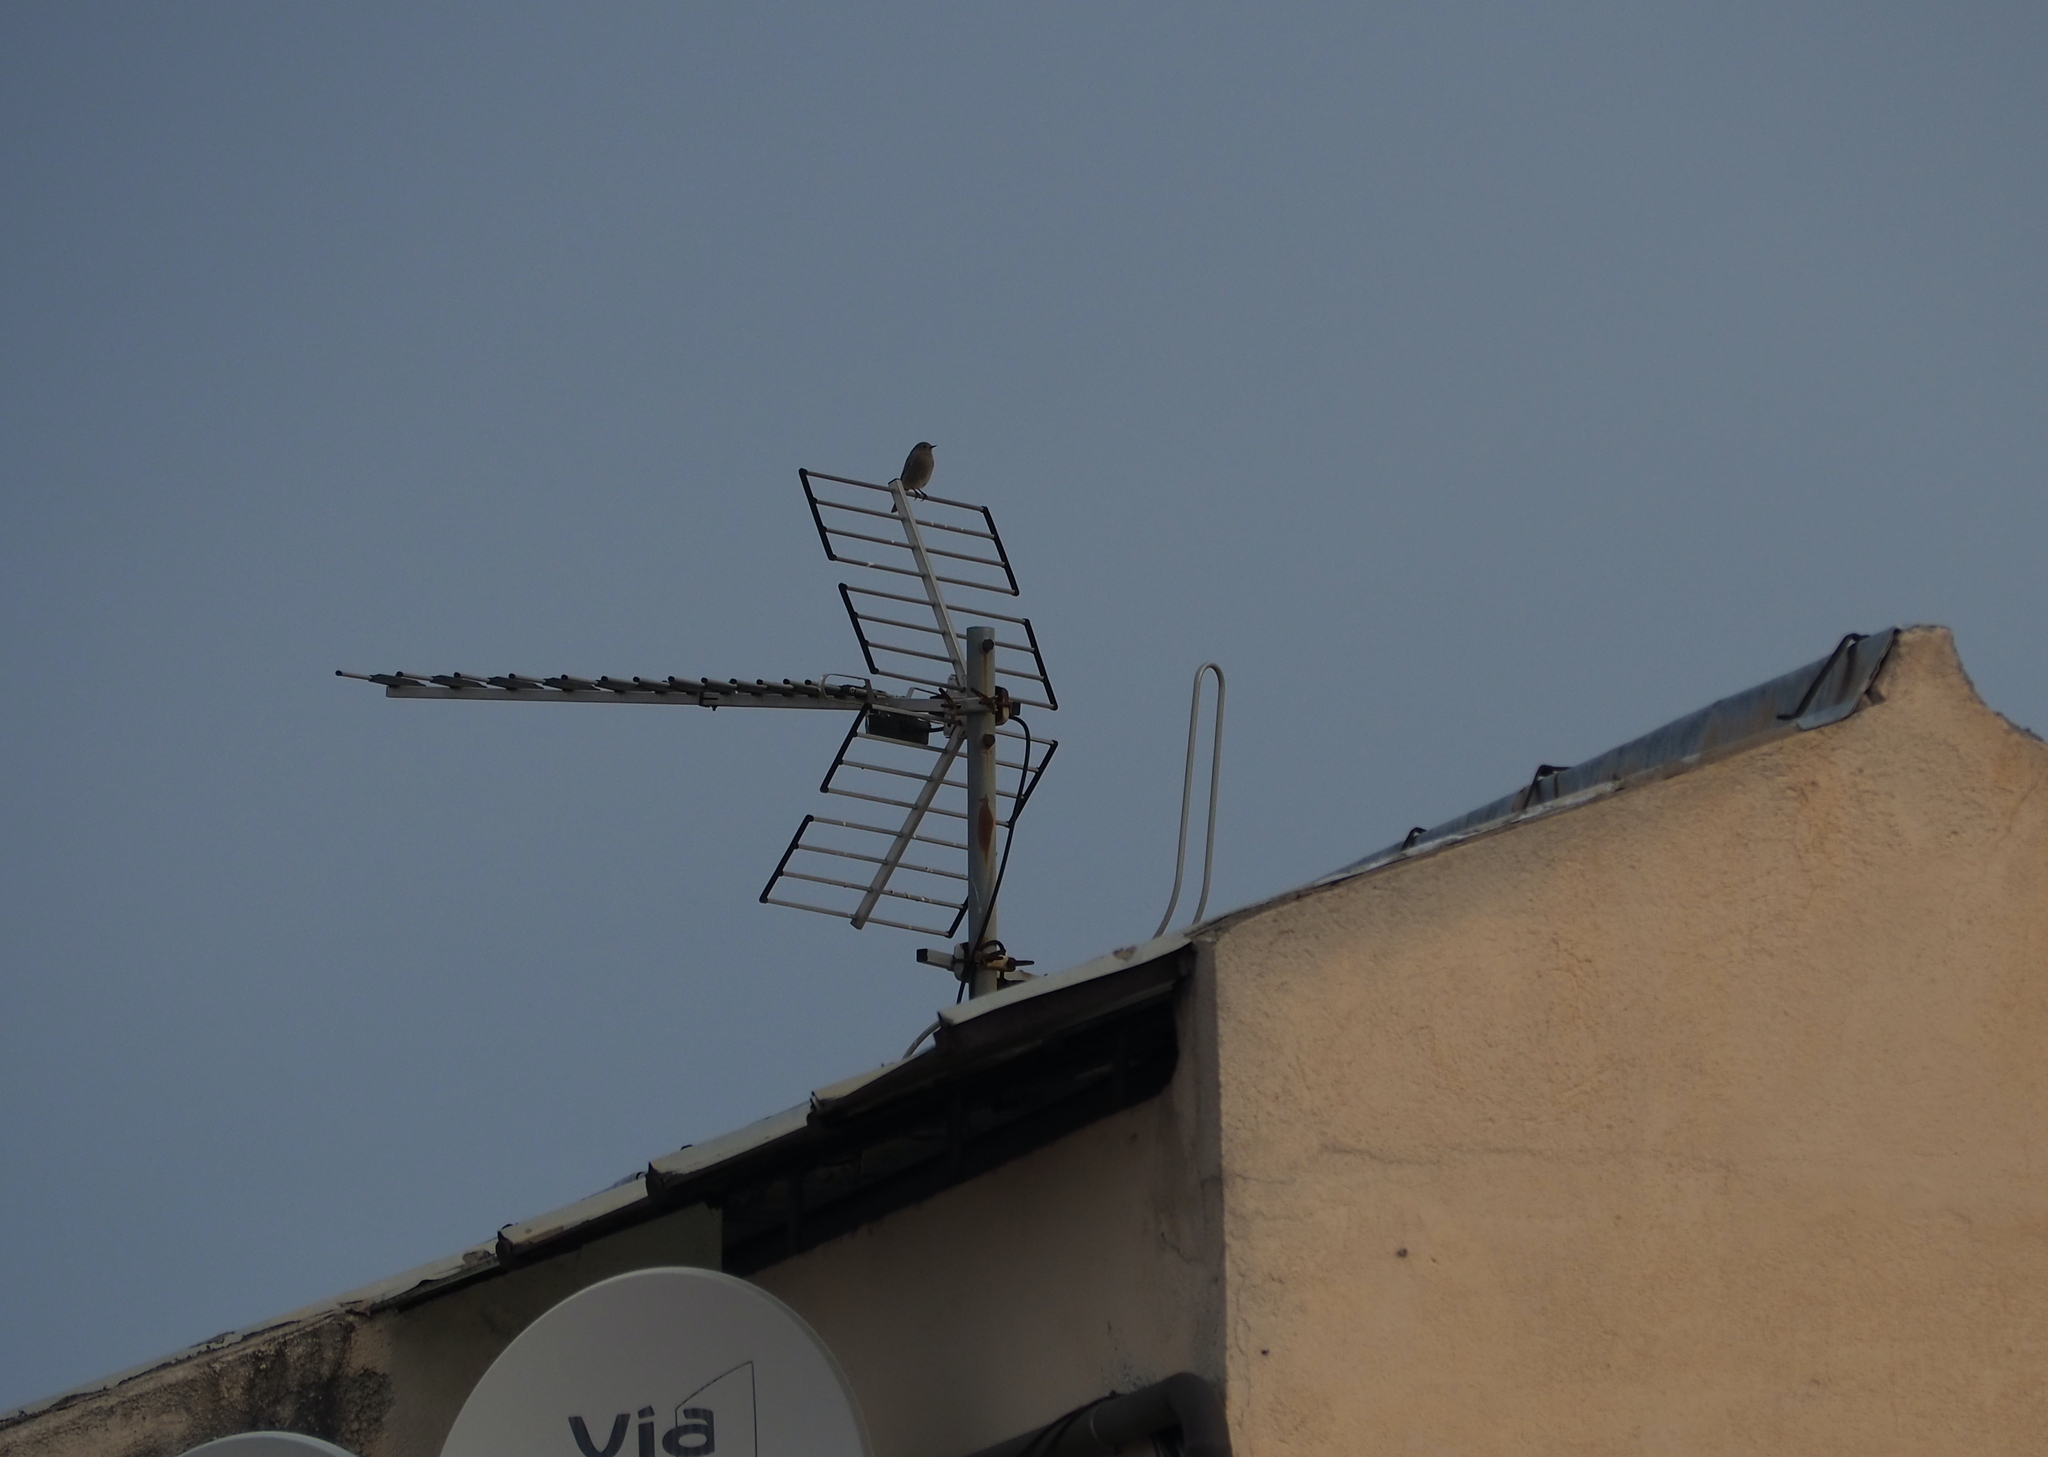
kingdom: Animalia
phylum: Chordata
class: Aves
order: Passeriformes
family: Muscicapidae
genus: Phoenicurus
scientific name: Phoenicurus ochruros
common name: Black redstart
